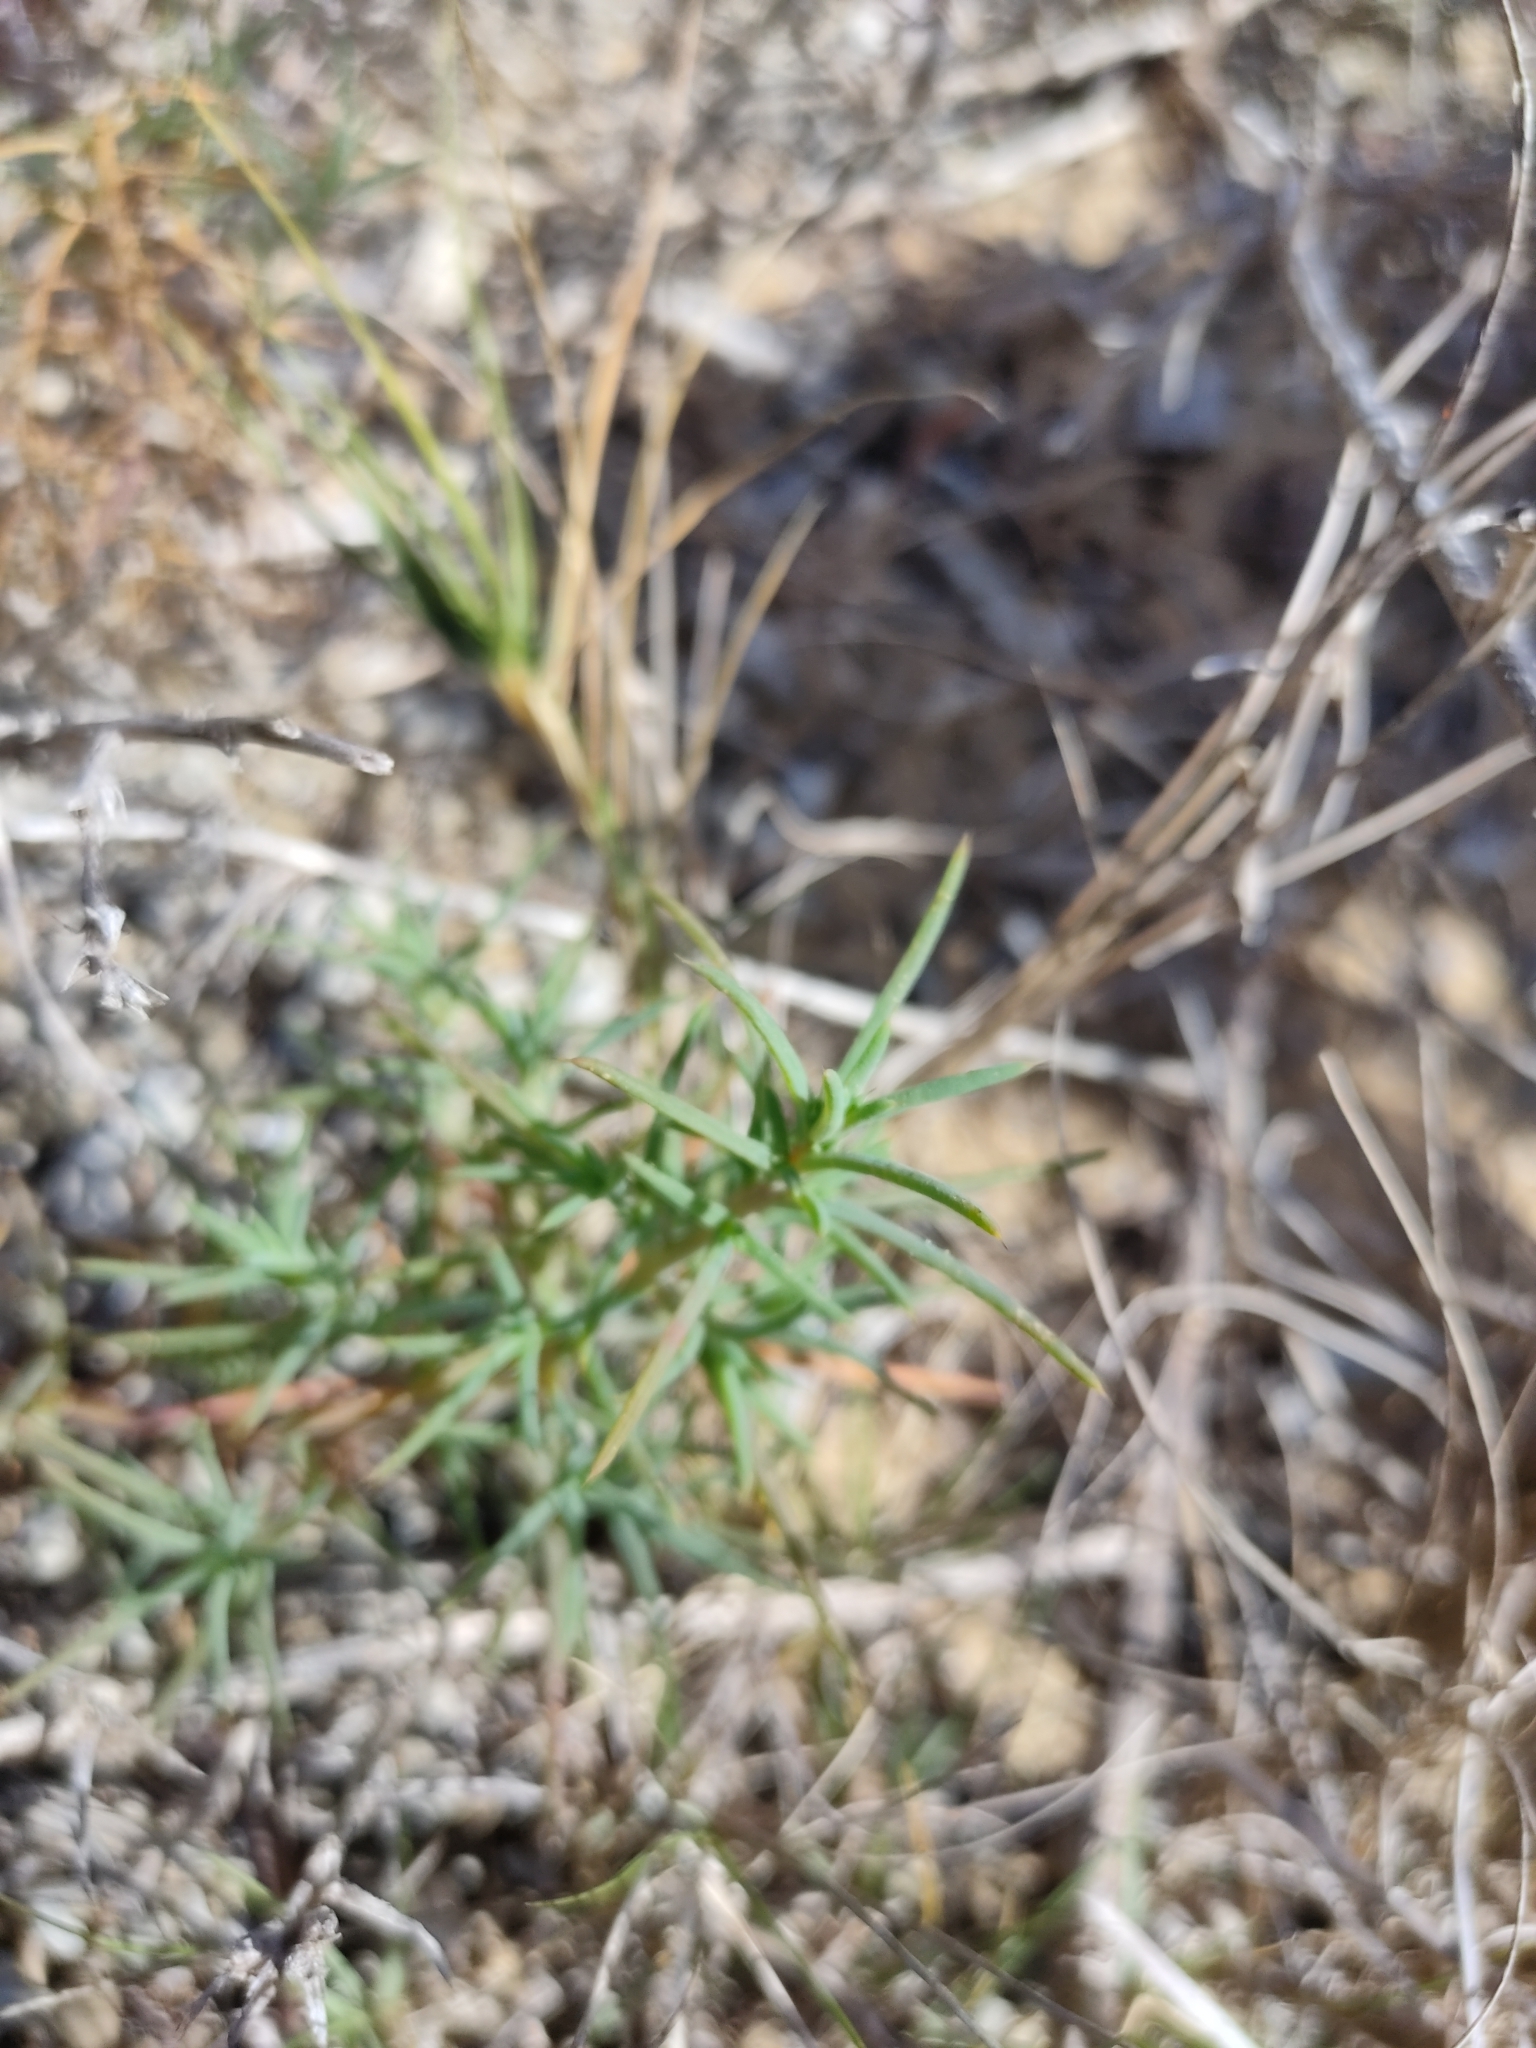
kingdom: Plantae
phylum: Tracheophyta
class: Magnoliopsida
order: Caryophyllales
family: Amaranthaceae
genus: Salsola
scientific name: Salsola australis
